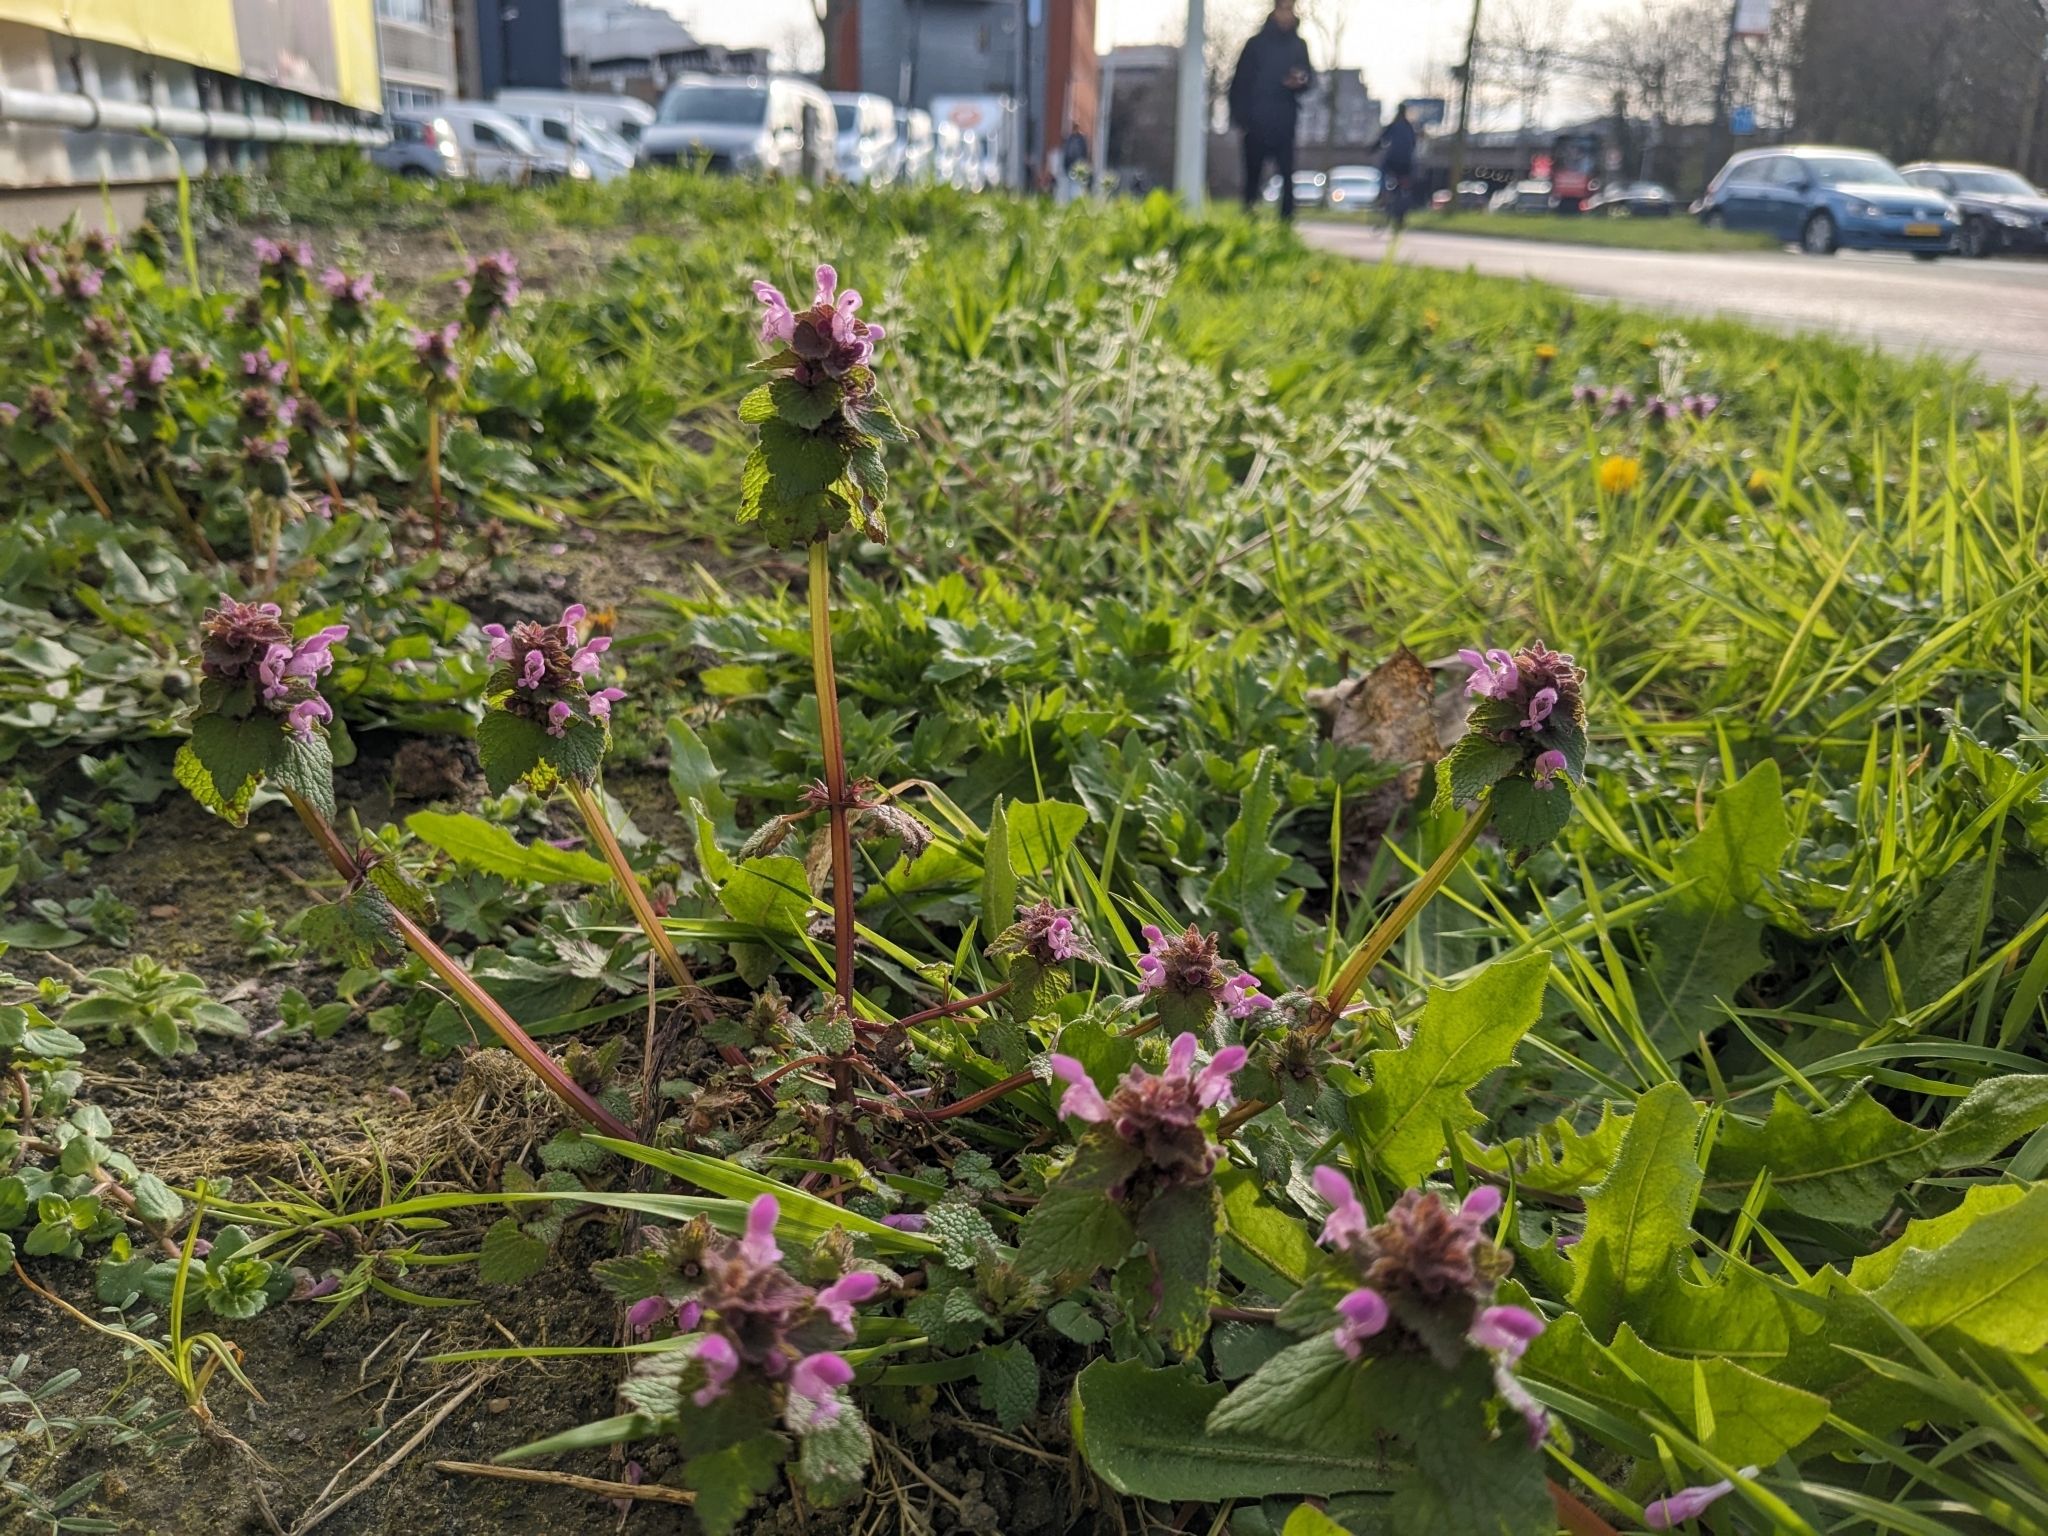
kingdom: Plantae
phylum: Tracheophyta
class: Magnoliopsida
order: Lamiales
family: Lamiaceae
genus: Lamium
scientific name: Lamium purpureum
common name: Red dead-nettle
